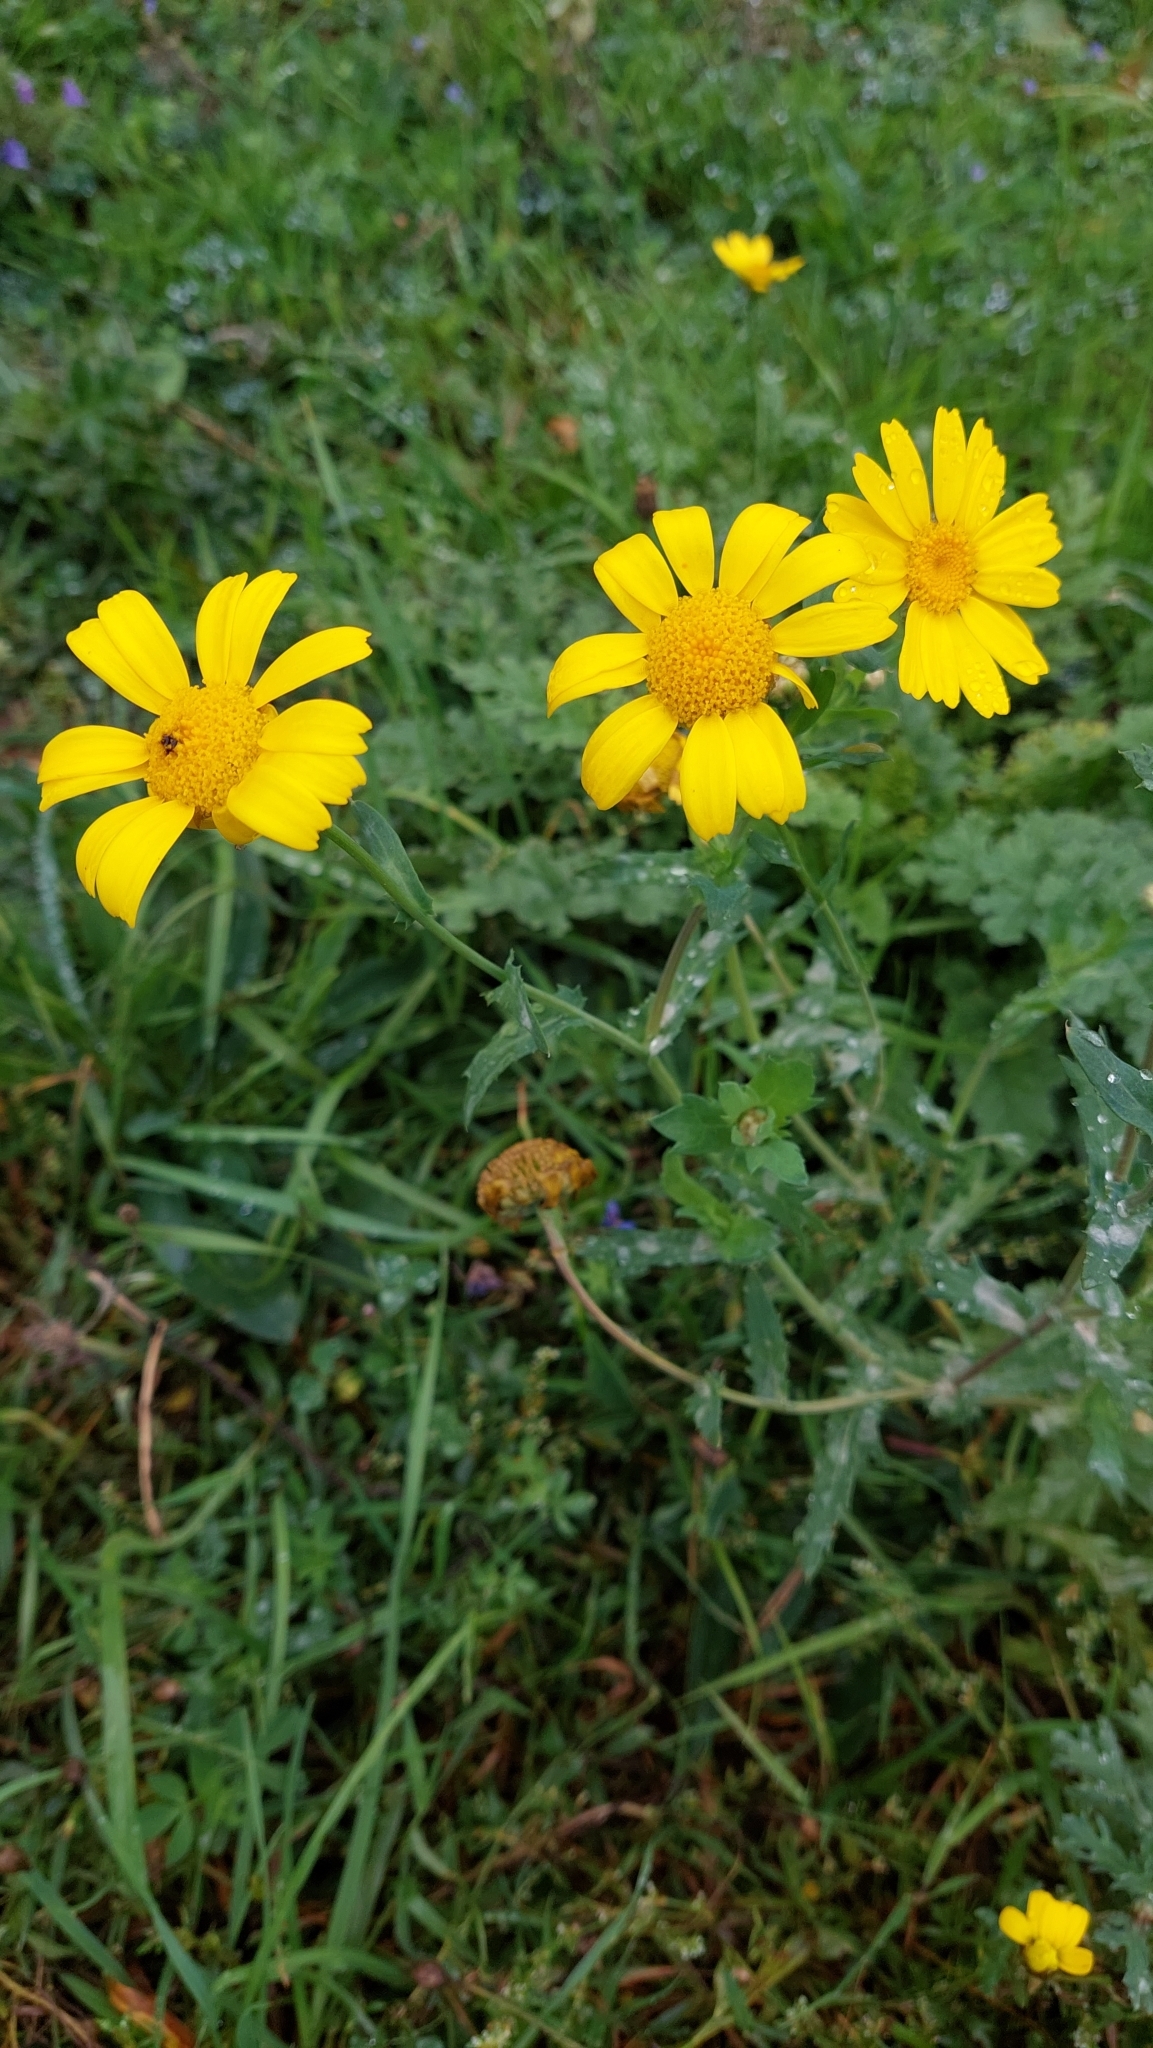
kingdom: Plantae
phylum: Tracheophyta
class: Magnoliopsida
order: Asterales
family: Asteraceae
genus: Glebionis
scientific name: Glebionis segetum
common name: Corndaisy
